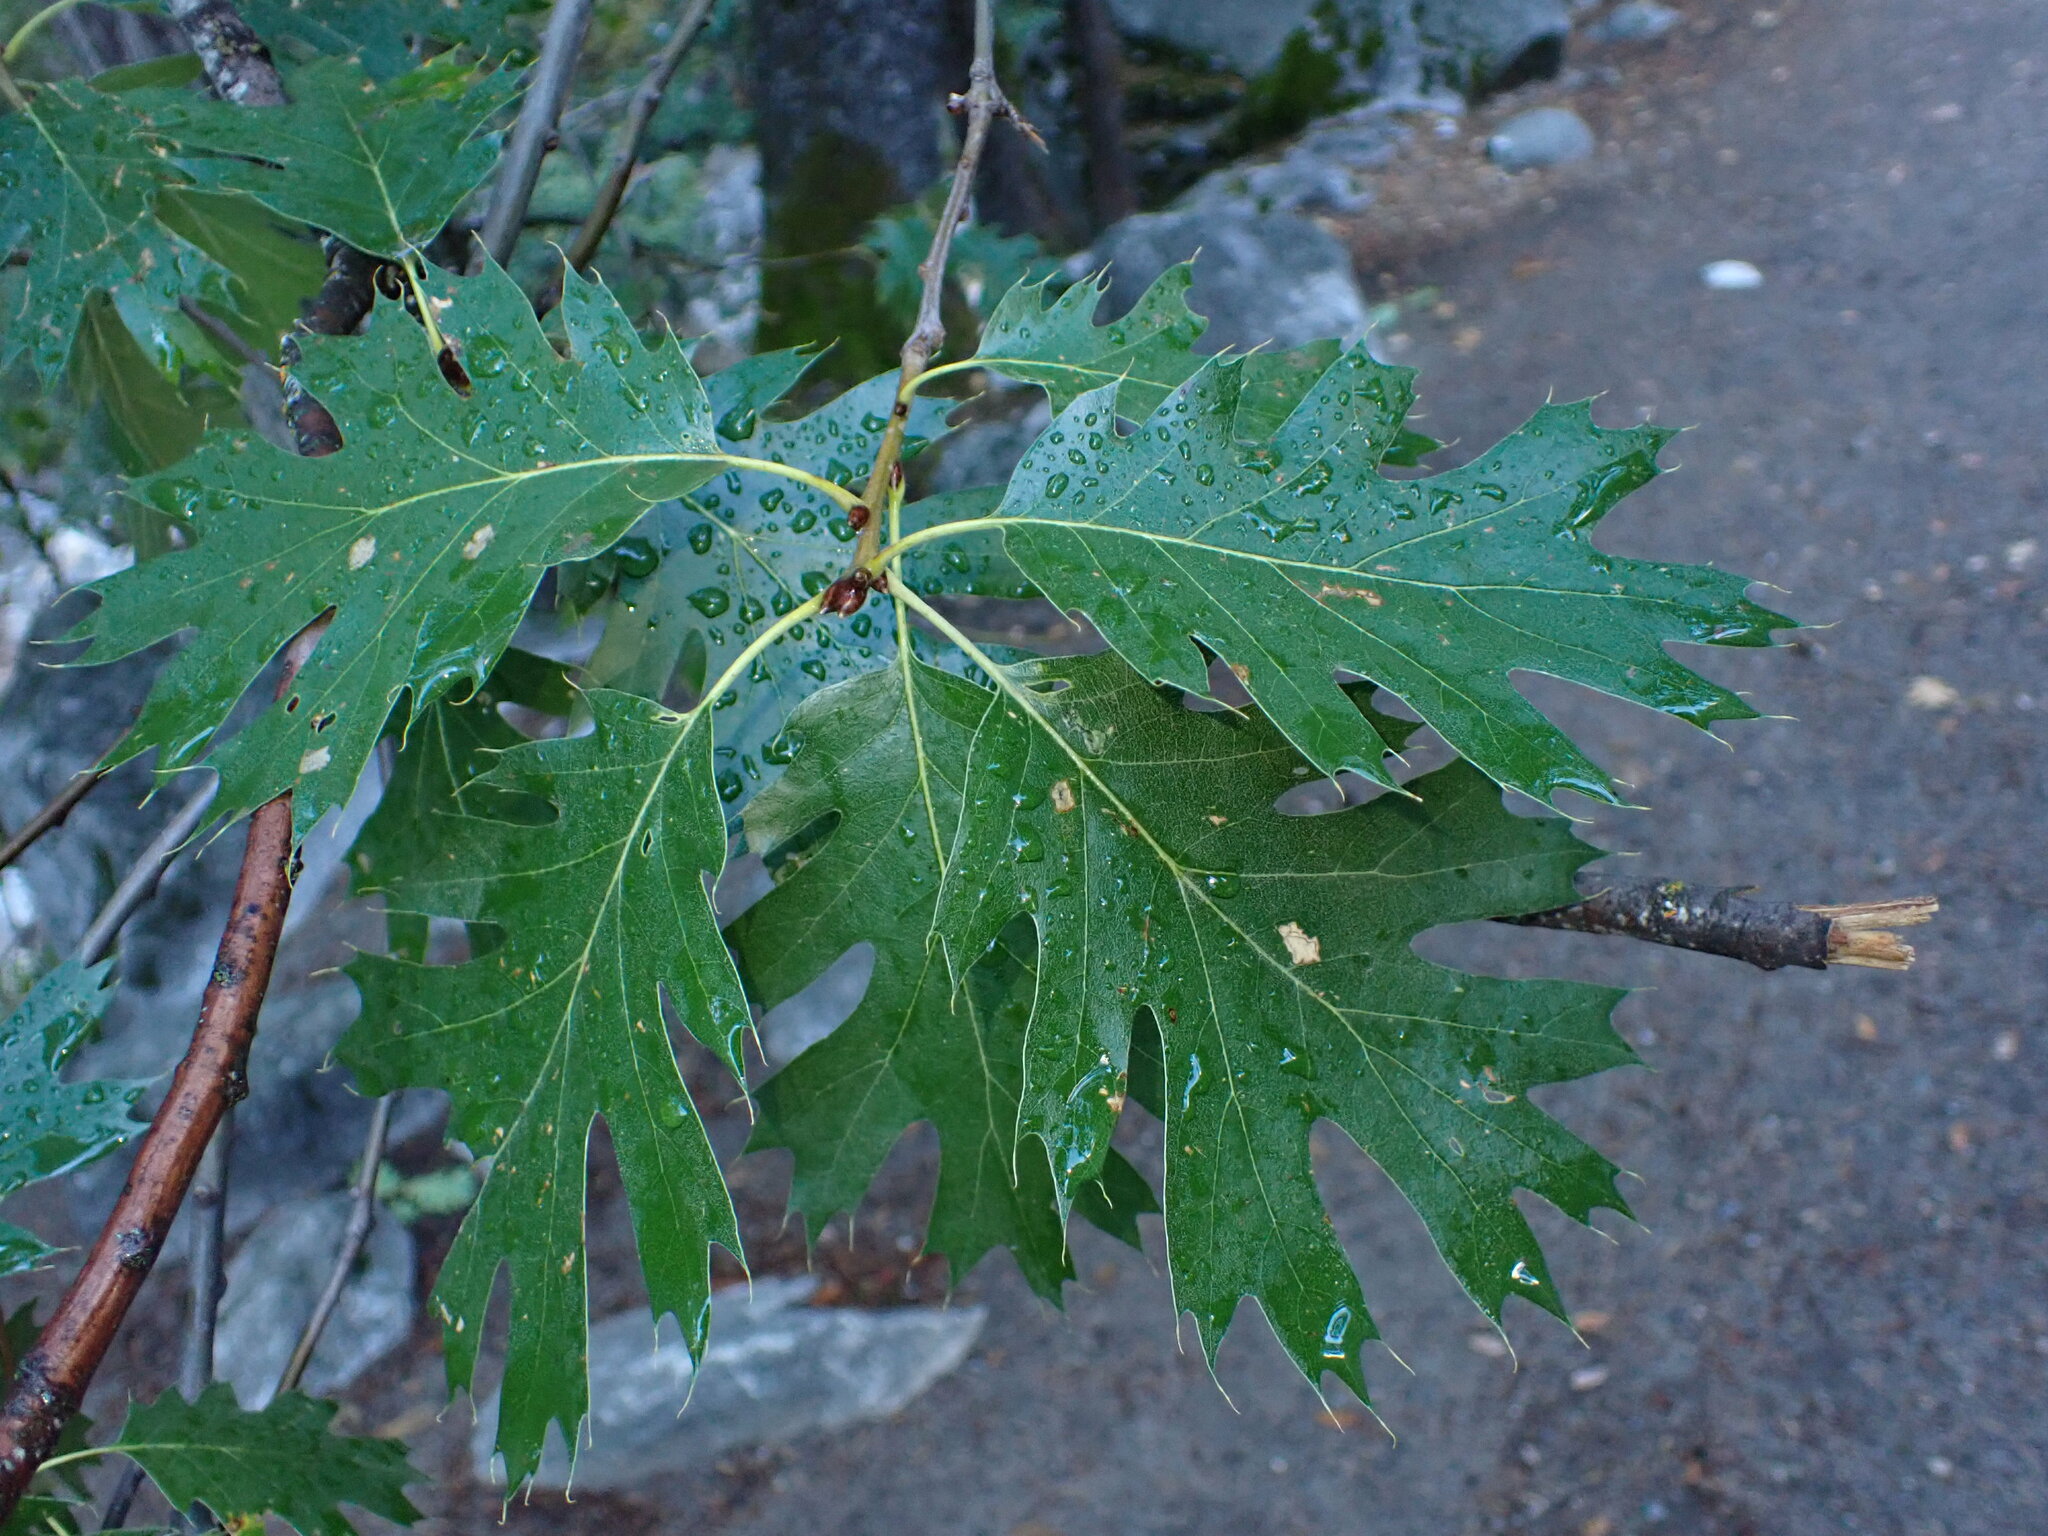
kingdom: Plantae
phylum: Tracheophyta
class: Magnoliopsida
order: Fagales
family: Fagaceae
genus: Quercus
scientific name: Quercus kelloggii
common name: California black oak
